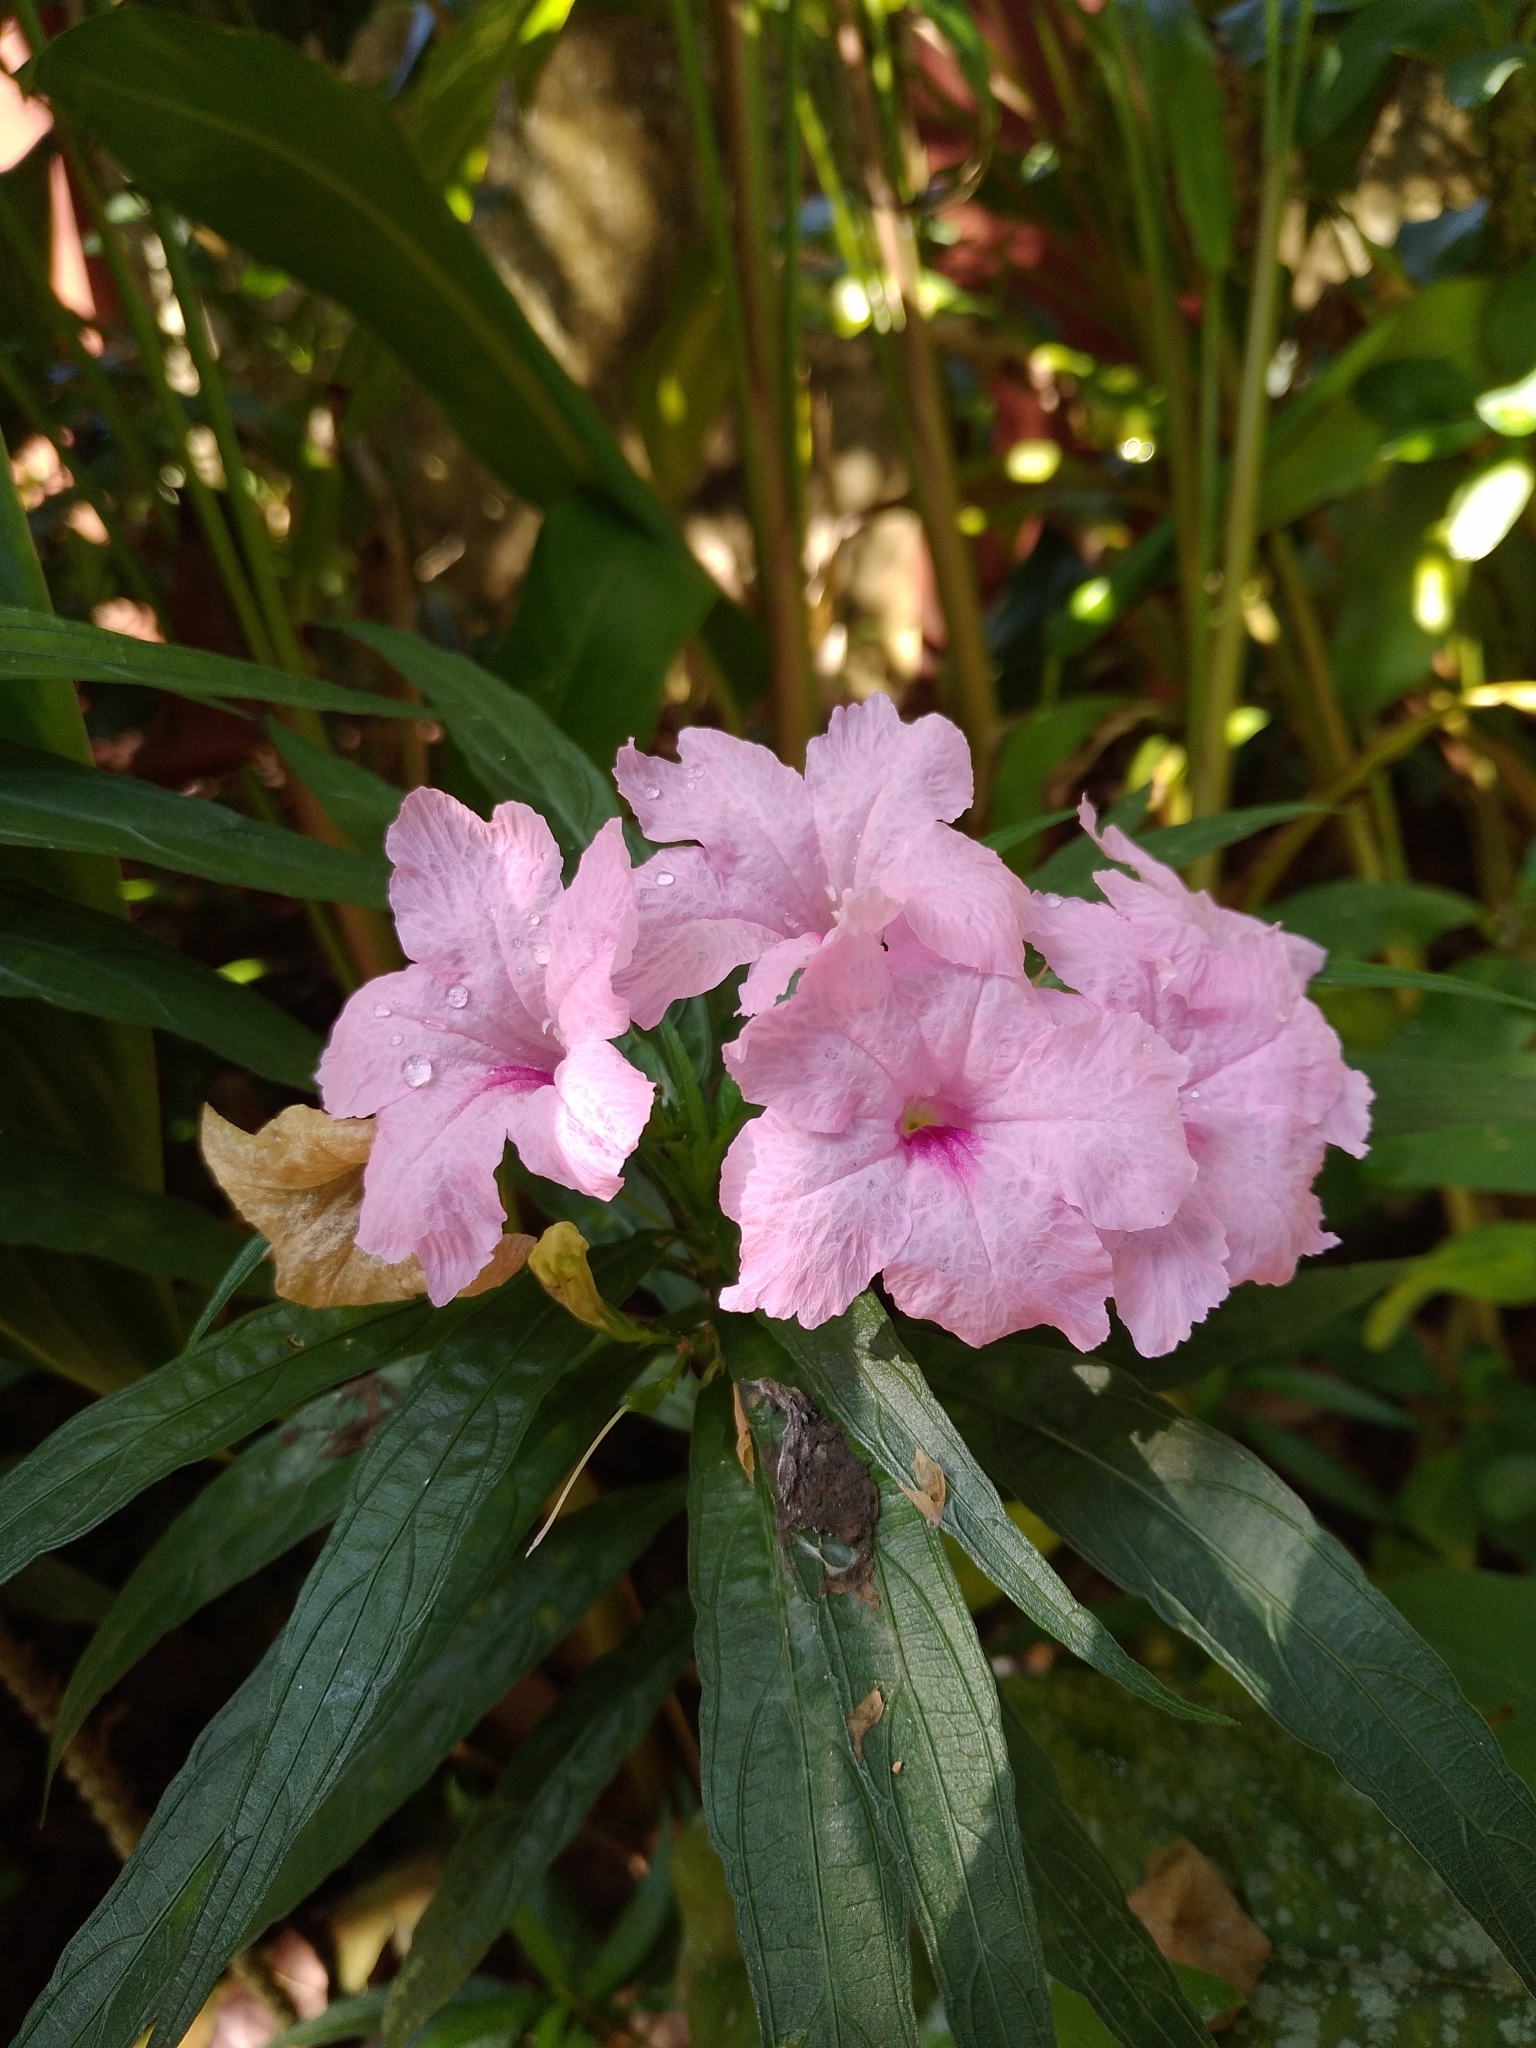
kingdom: Plantae
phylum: Tracheophyta
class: Magnoliopsida
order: Lamiales
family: Acanthaceae
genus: Ruellia
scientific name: Ruellia simplex
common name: Softseed wild petunia
